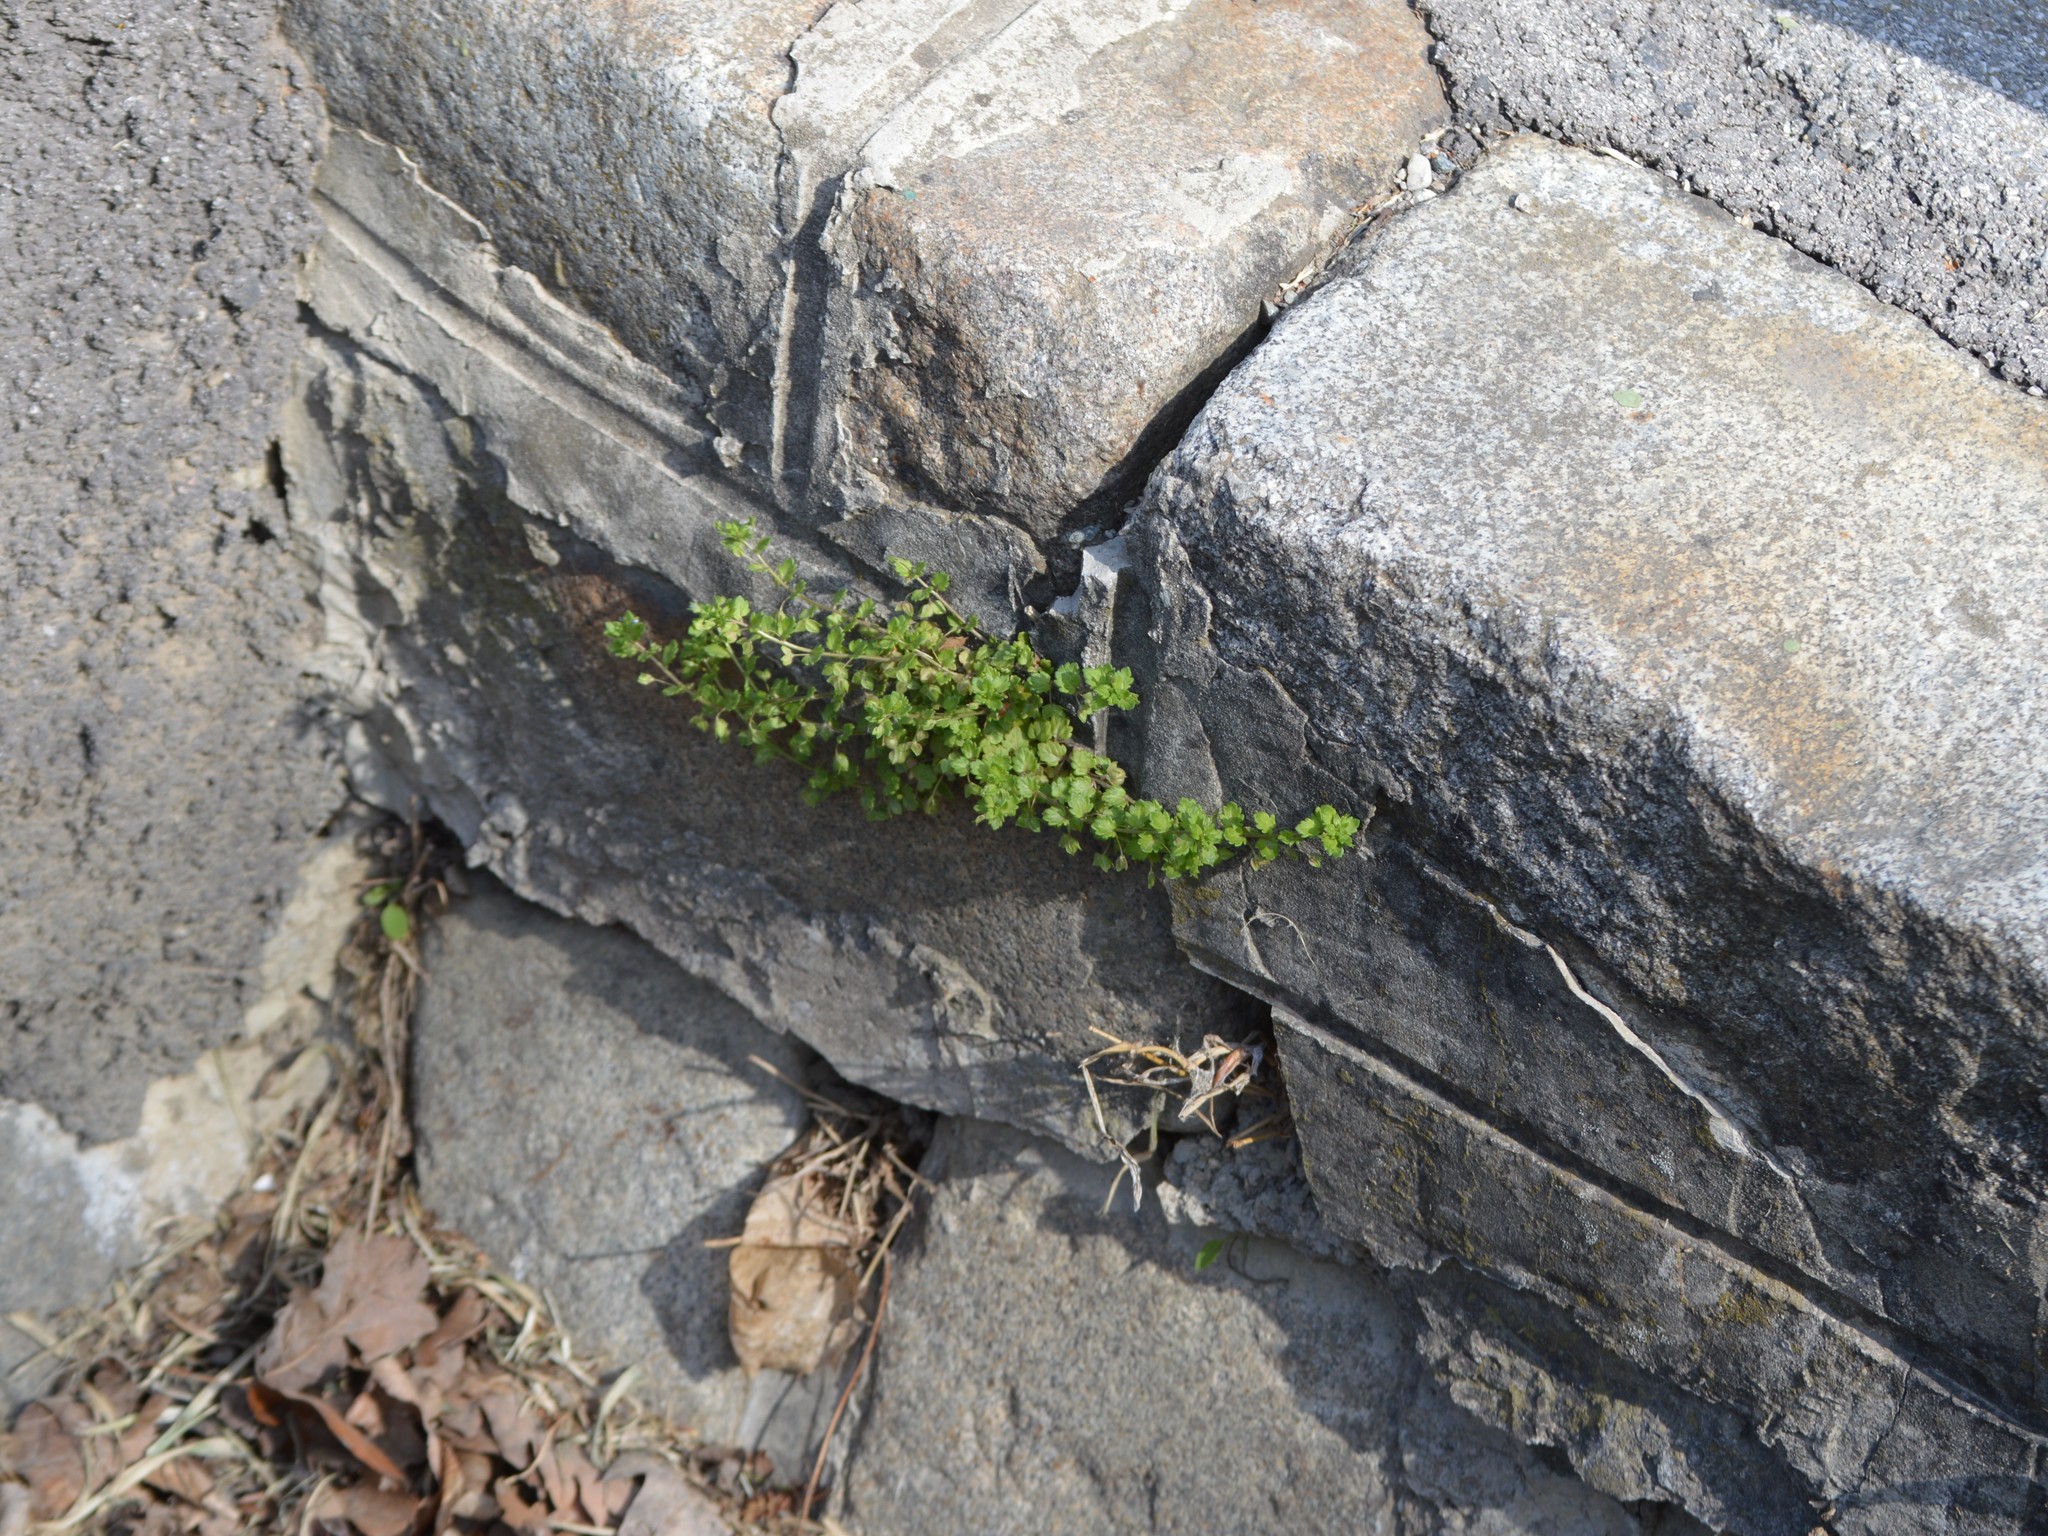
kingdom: Plantae
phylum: Tracheophyta
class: Magnoliopsida
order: Lamiales
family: Plantaginaceae
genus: Veronica
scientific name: Veronica polita
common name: Grey field-speedwell
